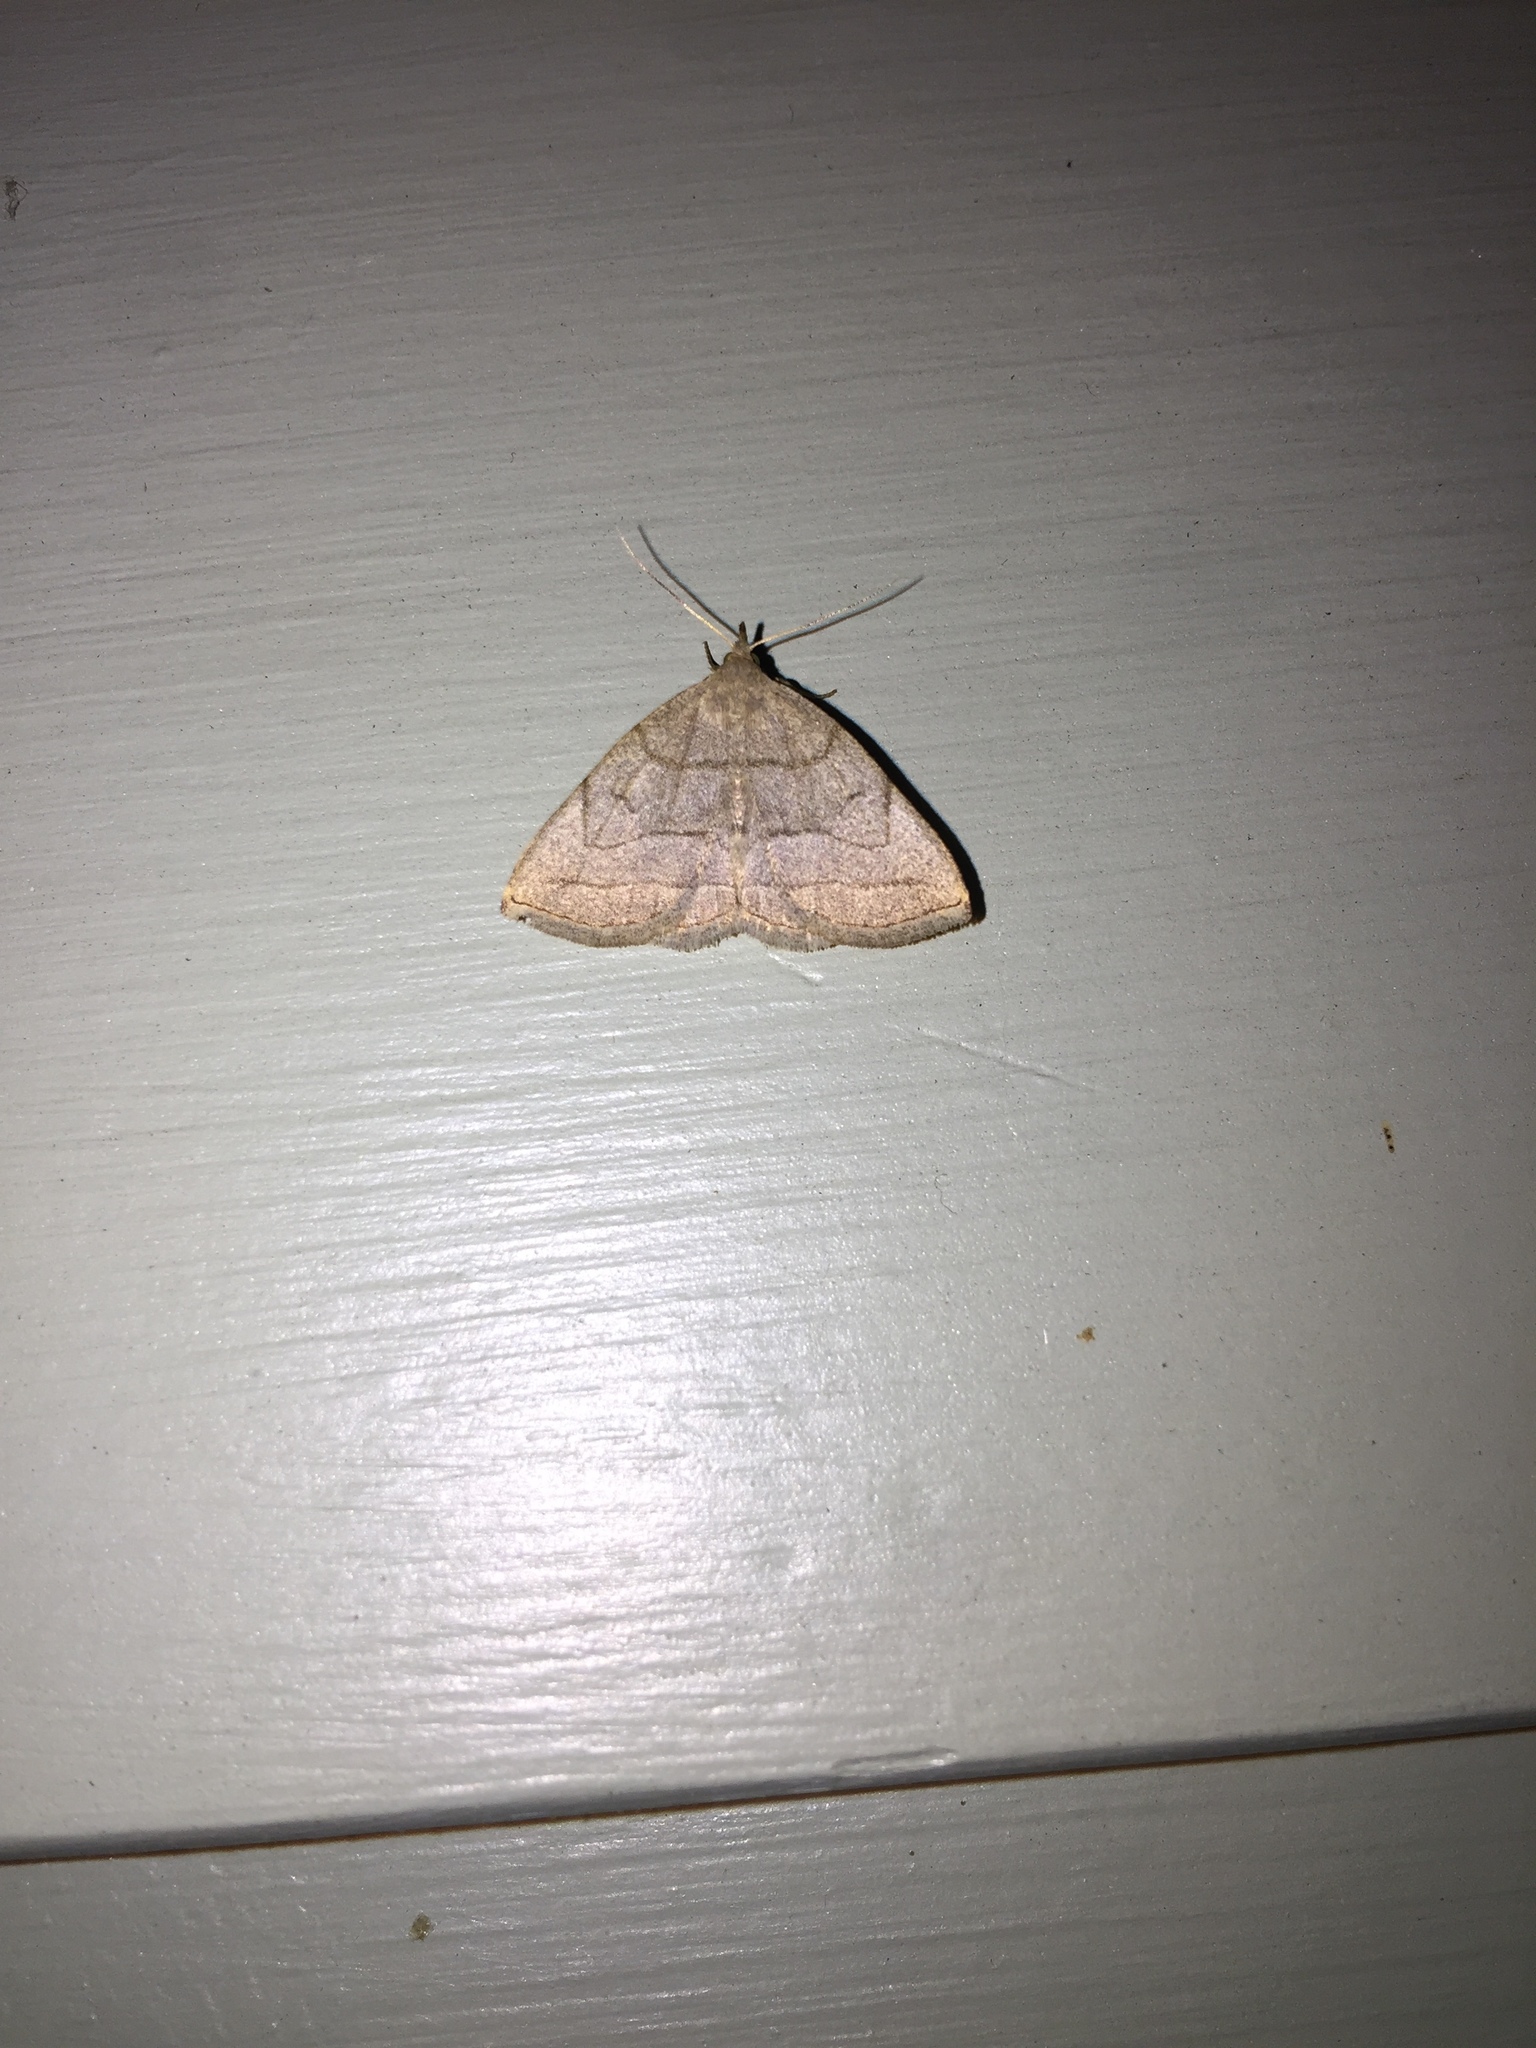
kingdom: Animalia
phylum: Arthropoda
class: Insecta
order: Lepidoptera
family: Erebidae
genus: Zanclognatha
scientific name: Zanclognatha pedipilalis
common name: Grayish fan-foot
